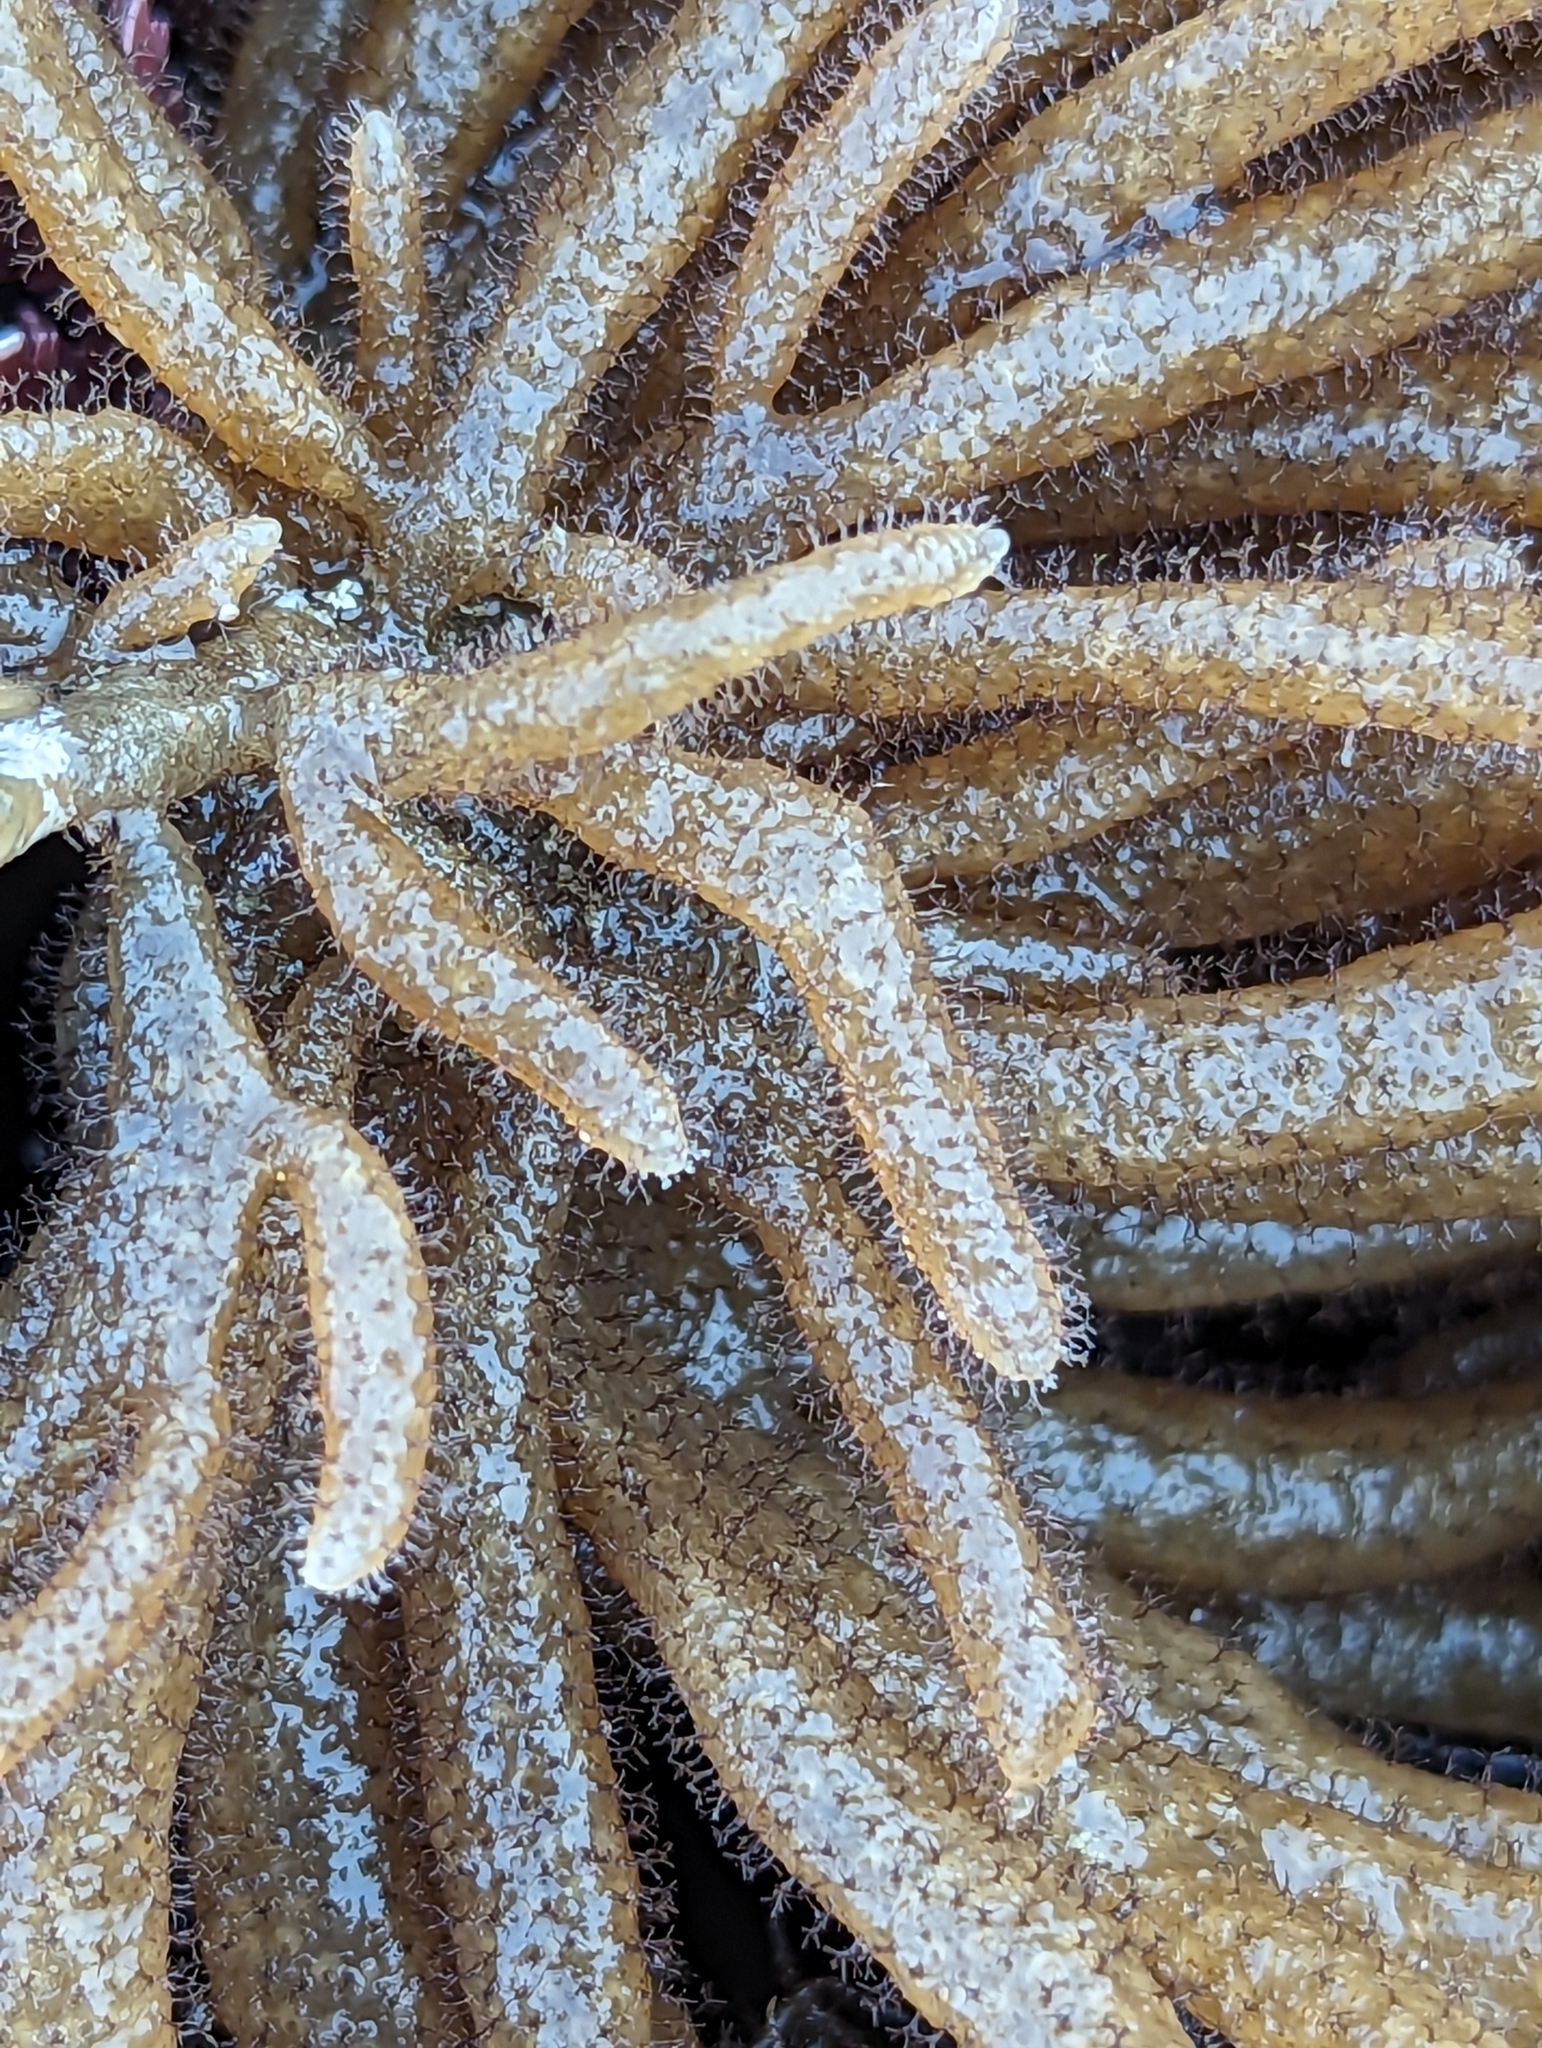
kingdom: Animalia
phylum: Bryozoa
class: Gymnolaemata
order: Ctenostomatida
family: Flustrellidridae
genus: Flustrellidra
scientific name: Flustrellidra corniculata
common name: Spiny leather bryozoan
